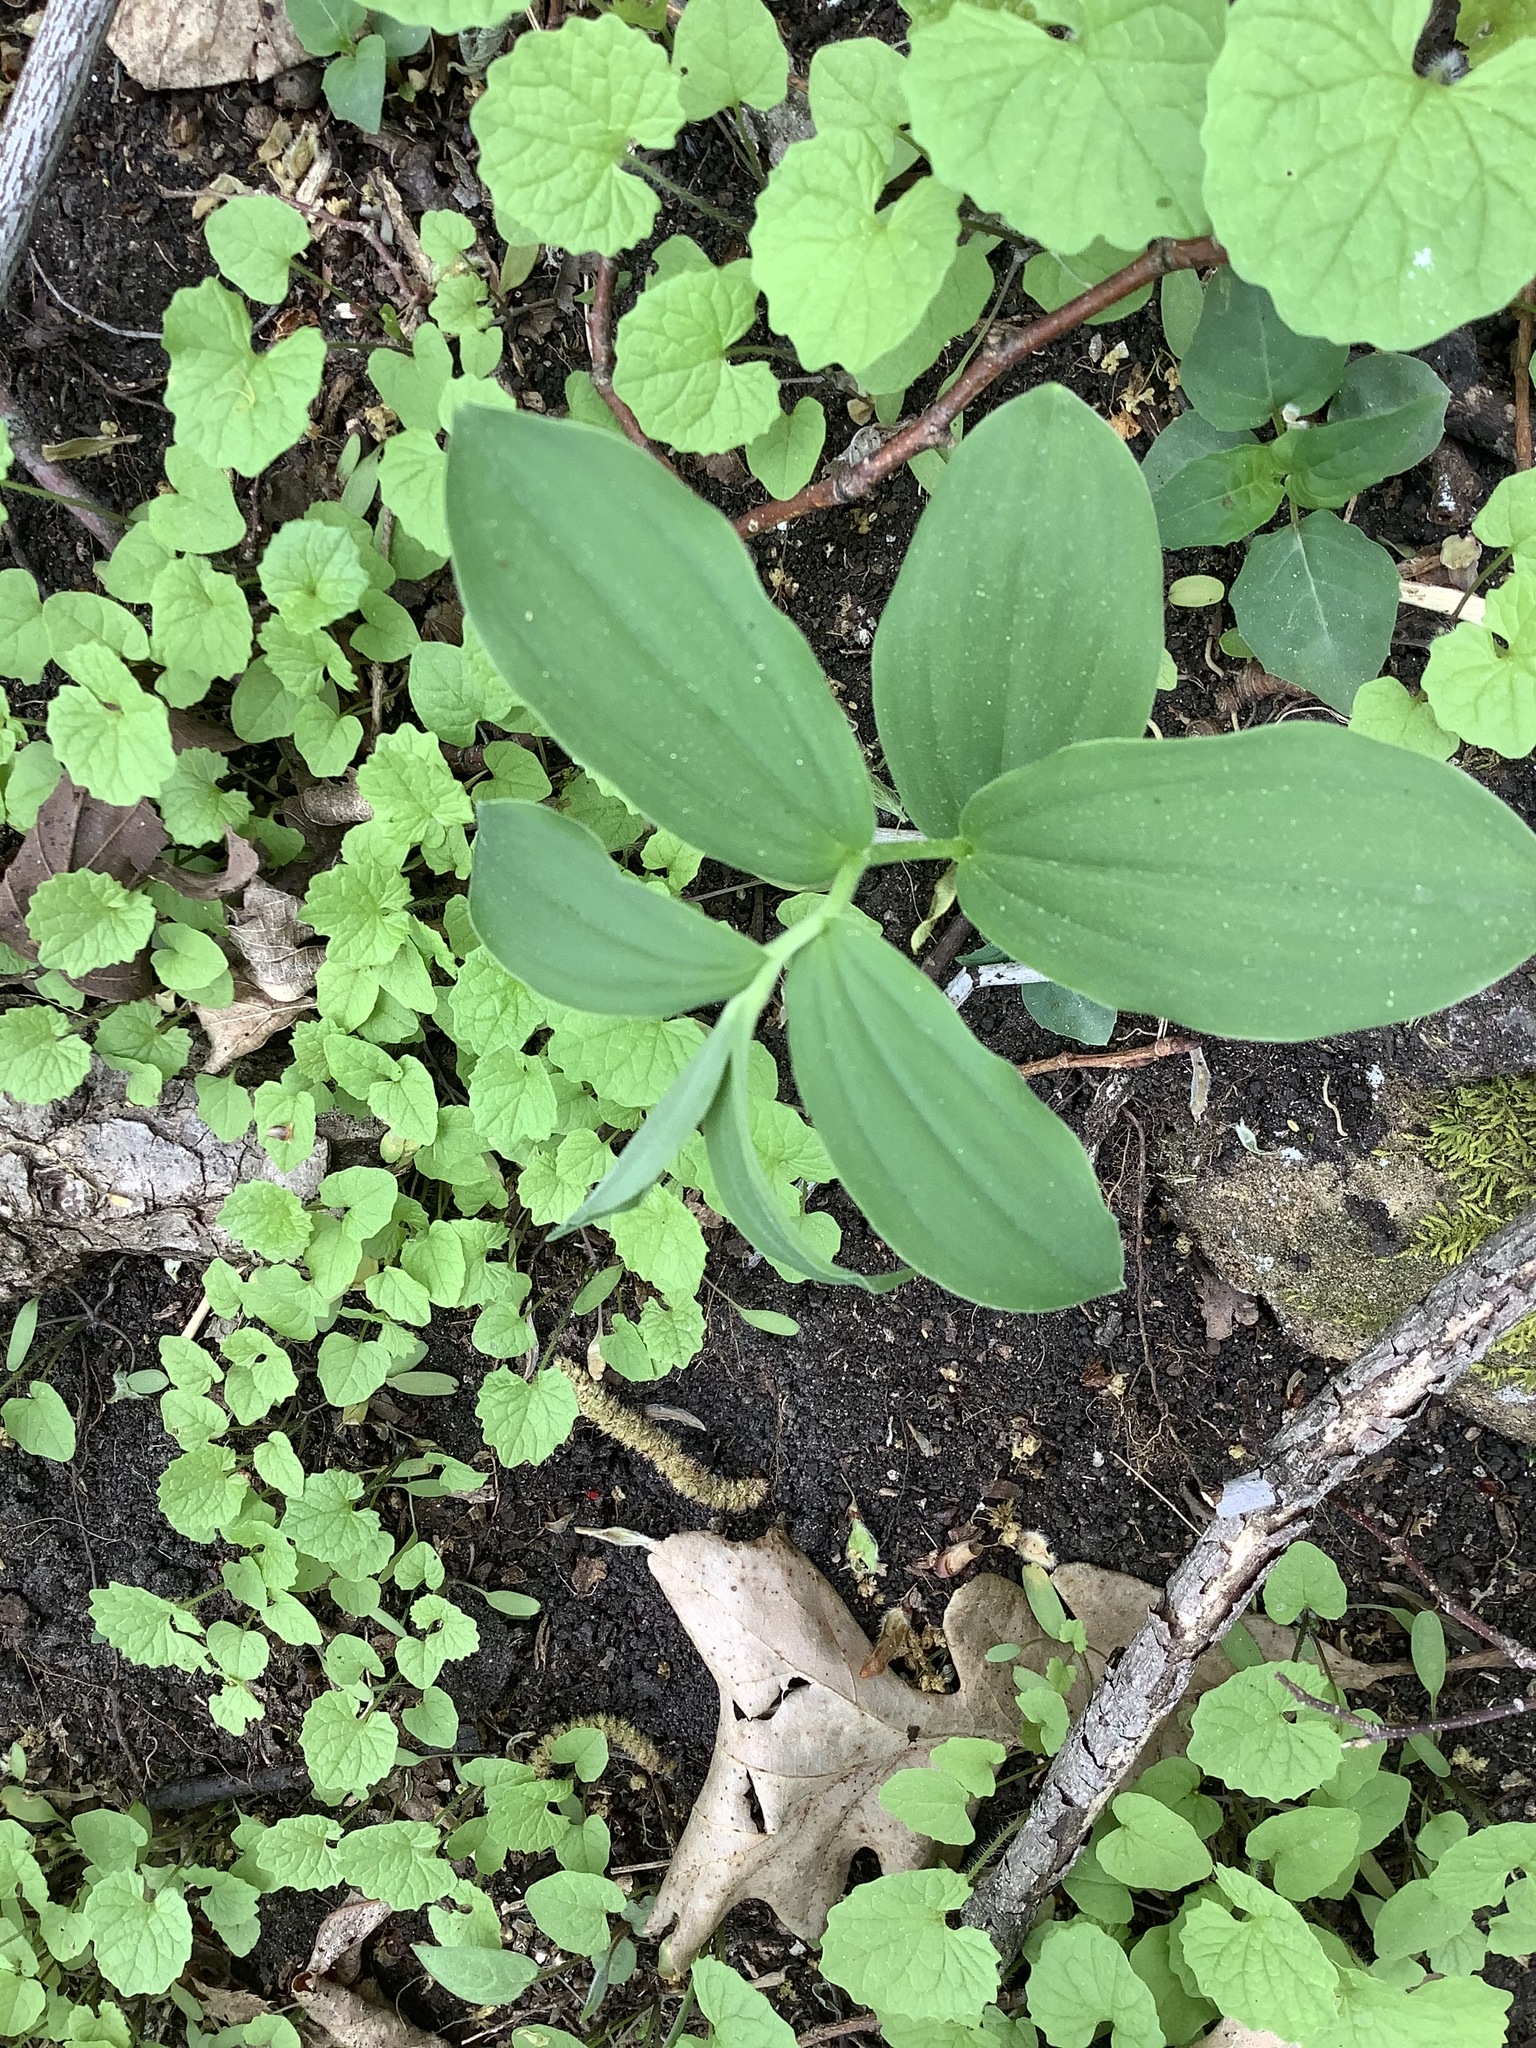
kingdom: Plantae
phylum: Tracheophyta
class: Liliopsida
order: Asparagales
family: Asparagaceae
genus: Maianthemum
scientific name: Maianthemum racemosum
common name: False spikenard
